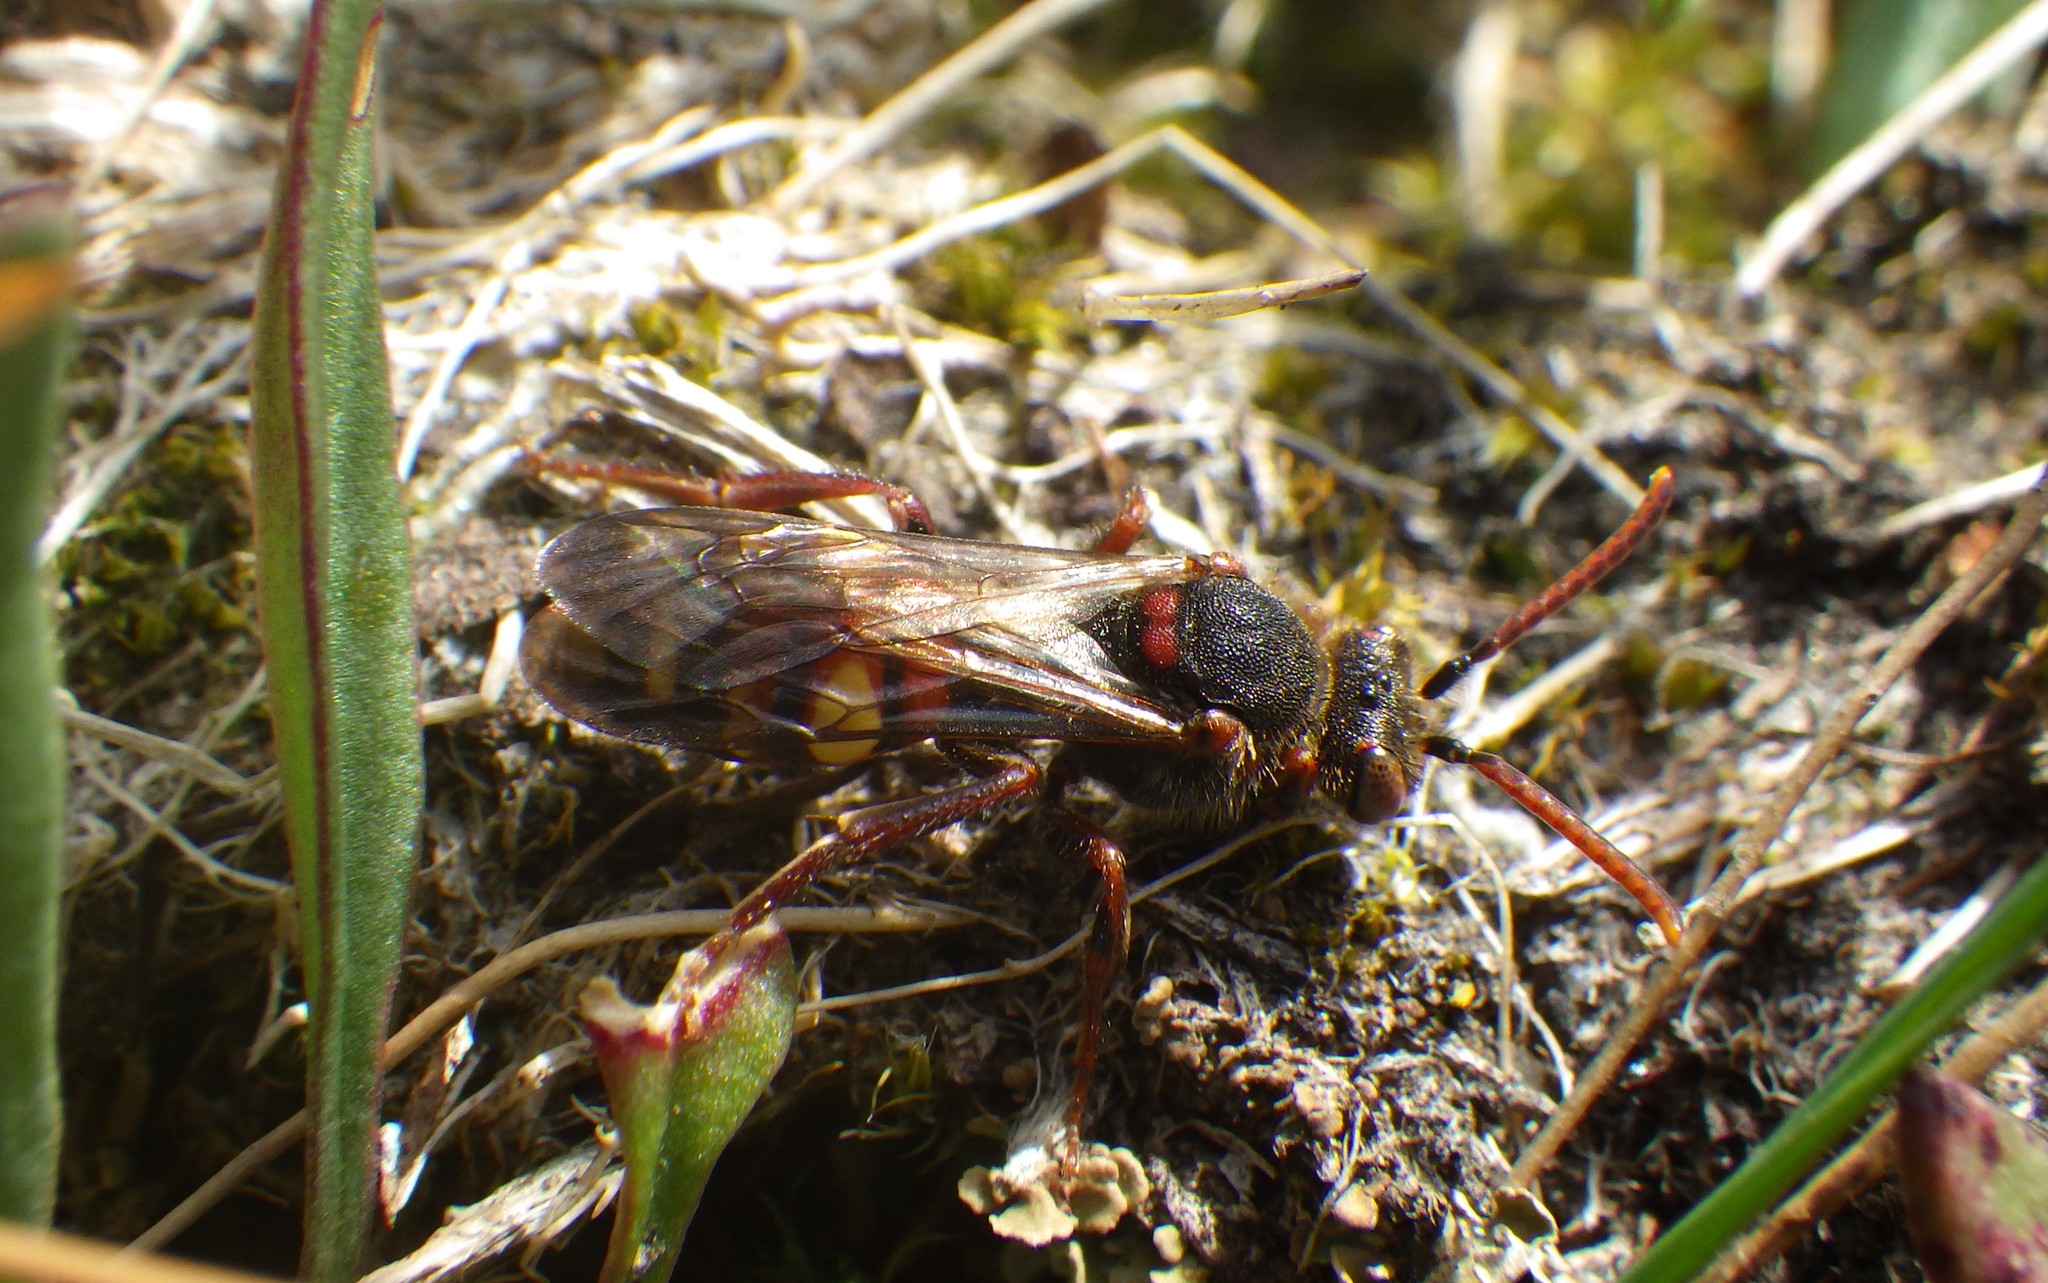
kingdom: Animalia
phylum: Arthropoda
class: Insecta
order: Hymenoptera
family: Apidae
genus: Nomada
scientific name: Nomada leucophthalma
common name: Early nomad bee
